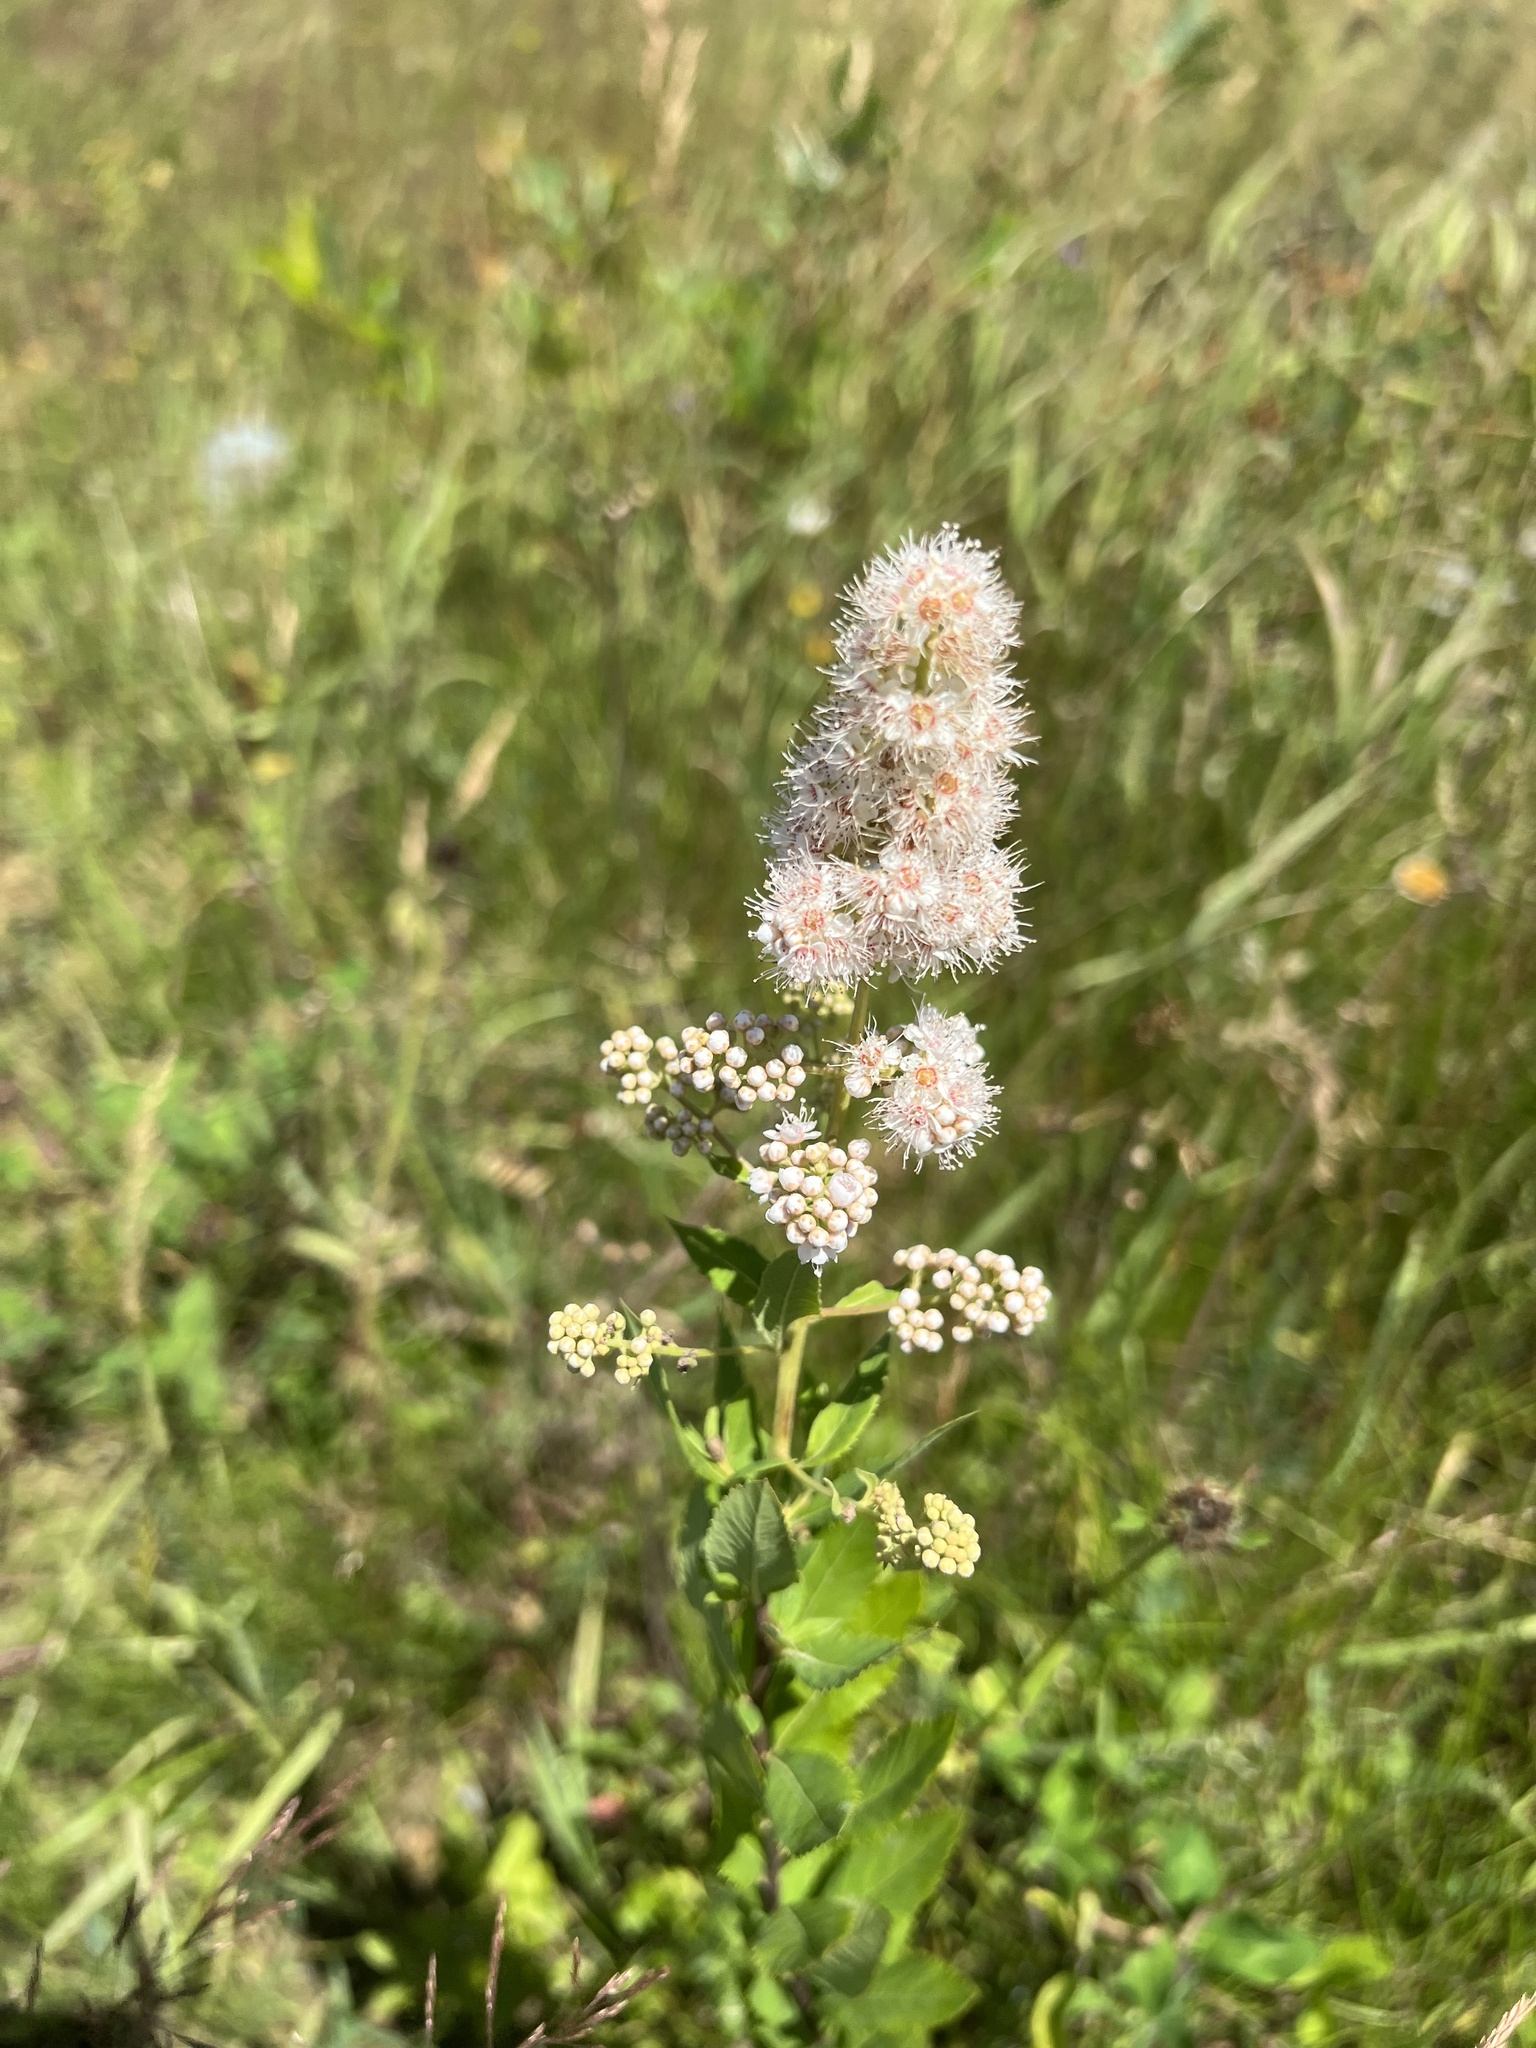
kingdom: Plantae
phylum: Tracheophyta
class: Magnoliopsida
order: Rosales
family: Rosaceae
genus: Spiraea
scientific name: Spiraea alba
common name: Pale bridewort
